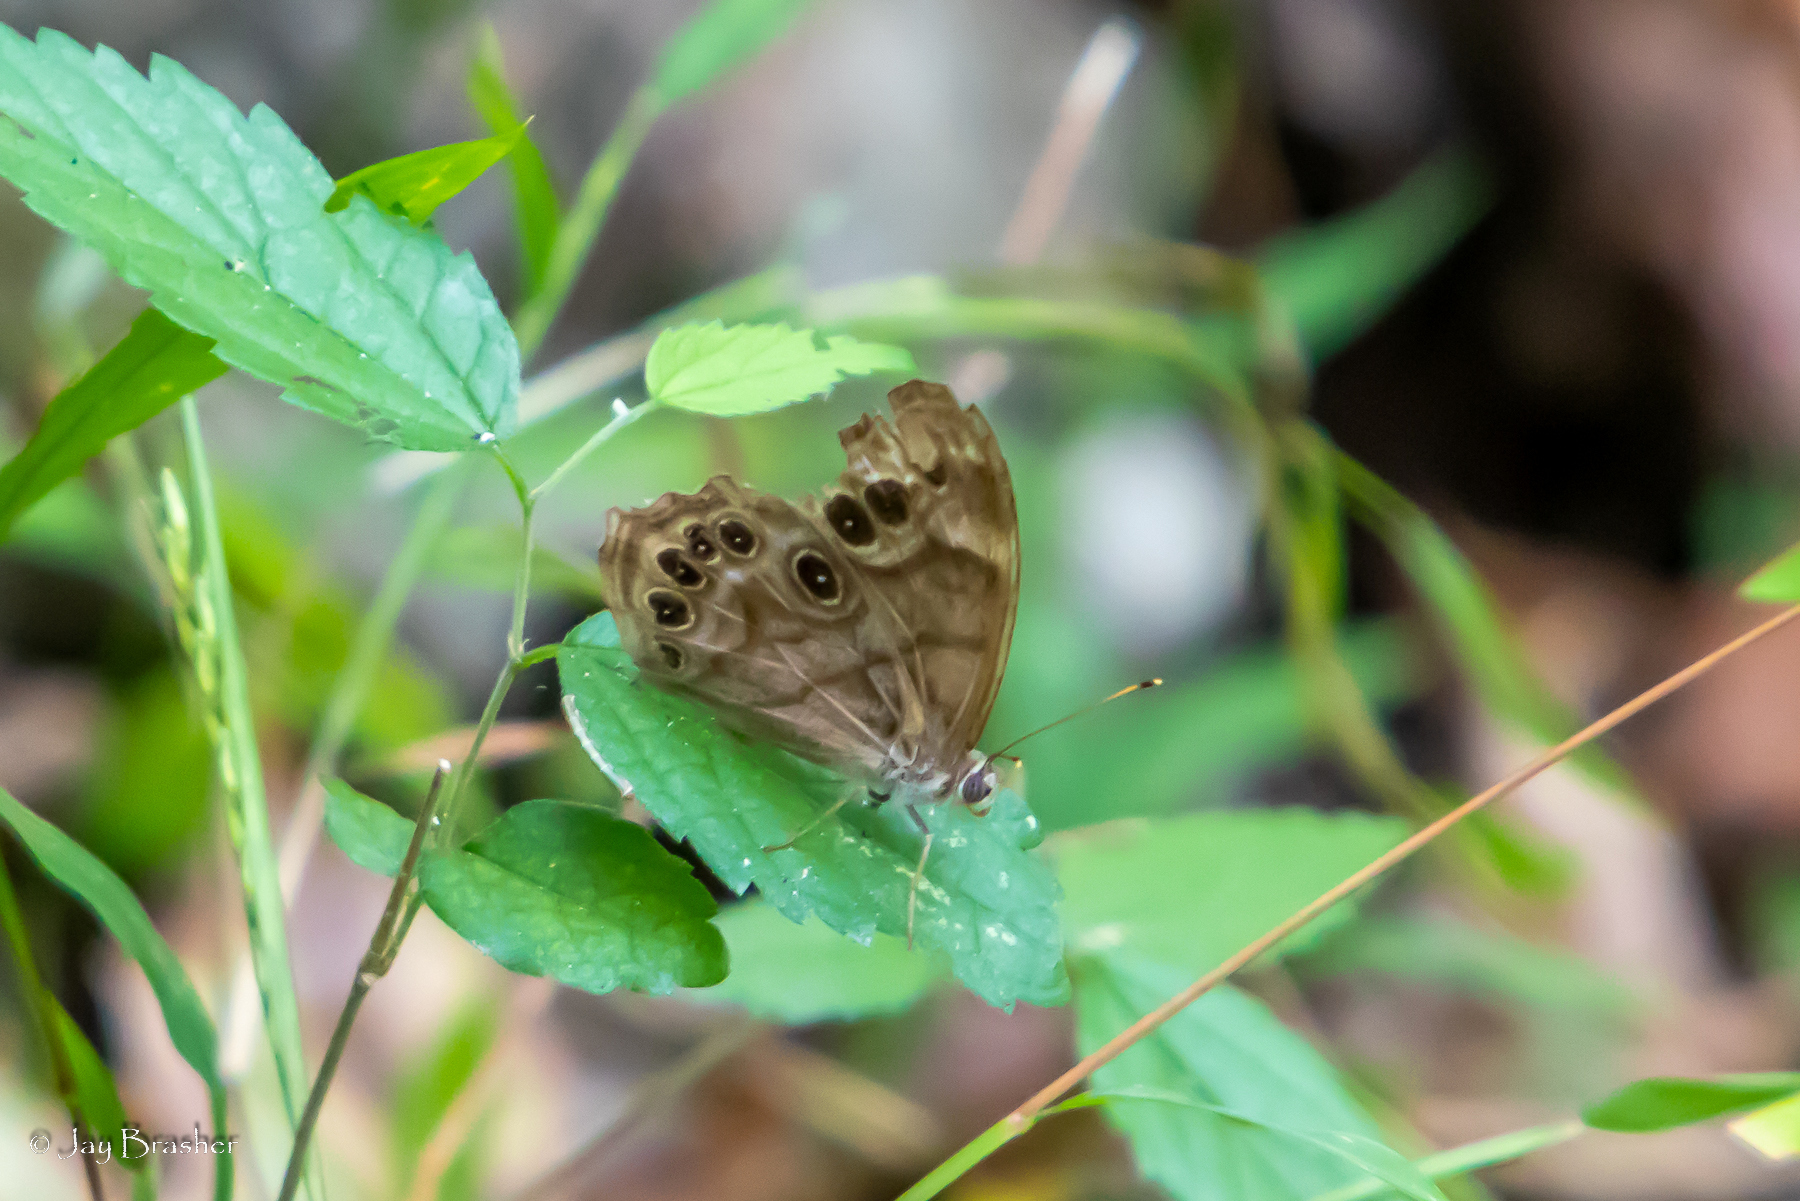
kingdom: Animalia
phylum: Arthropoda
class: Insecta
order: Lepidoptera
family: Nymphalidae
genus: Lethe
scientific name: Lethe anthedon
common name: Northern pearly-eye
